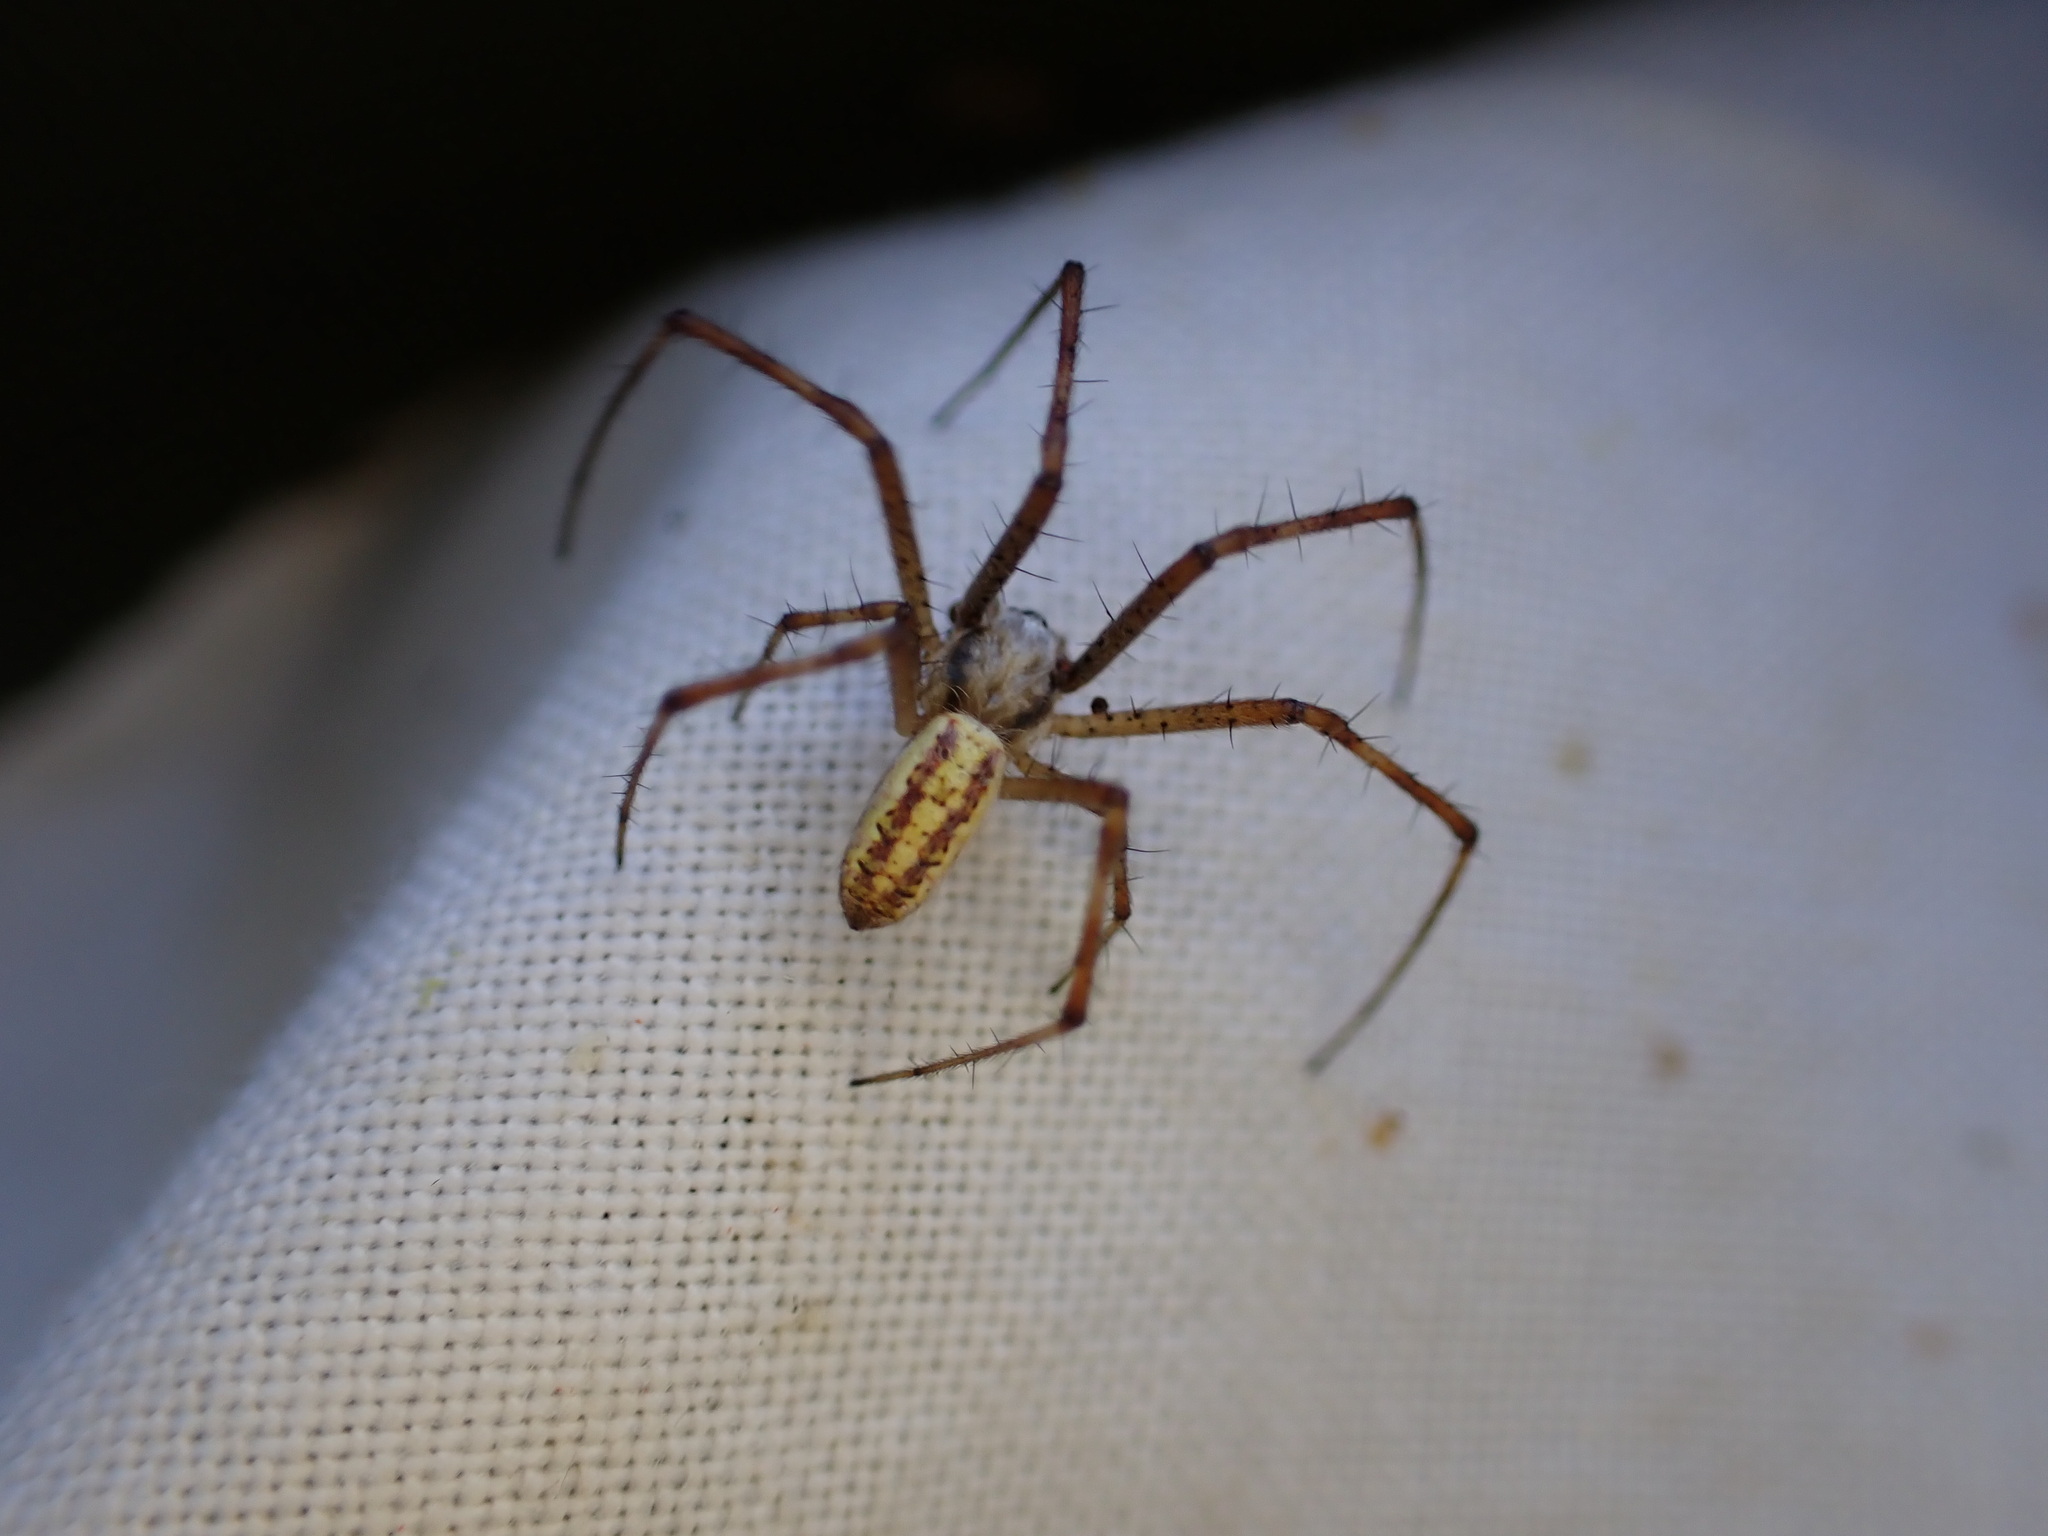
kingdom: Animalia
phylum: Arthropoda
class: Arachnida
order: Araneae
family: Araneidae
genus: Argiope
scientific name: Argiope bruennichi
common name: Wasp spider
